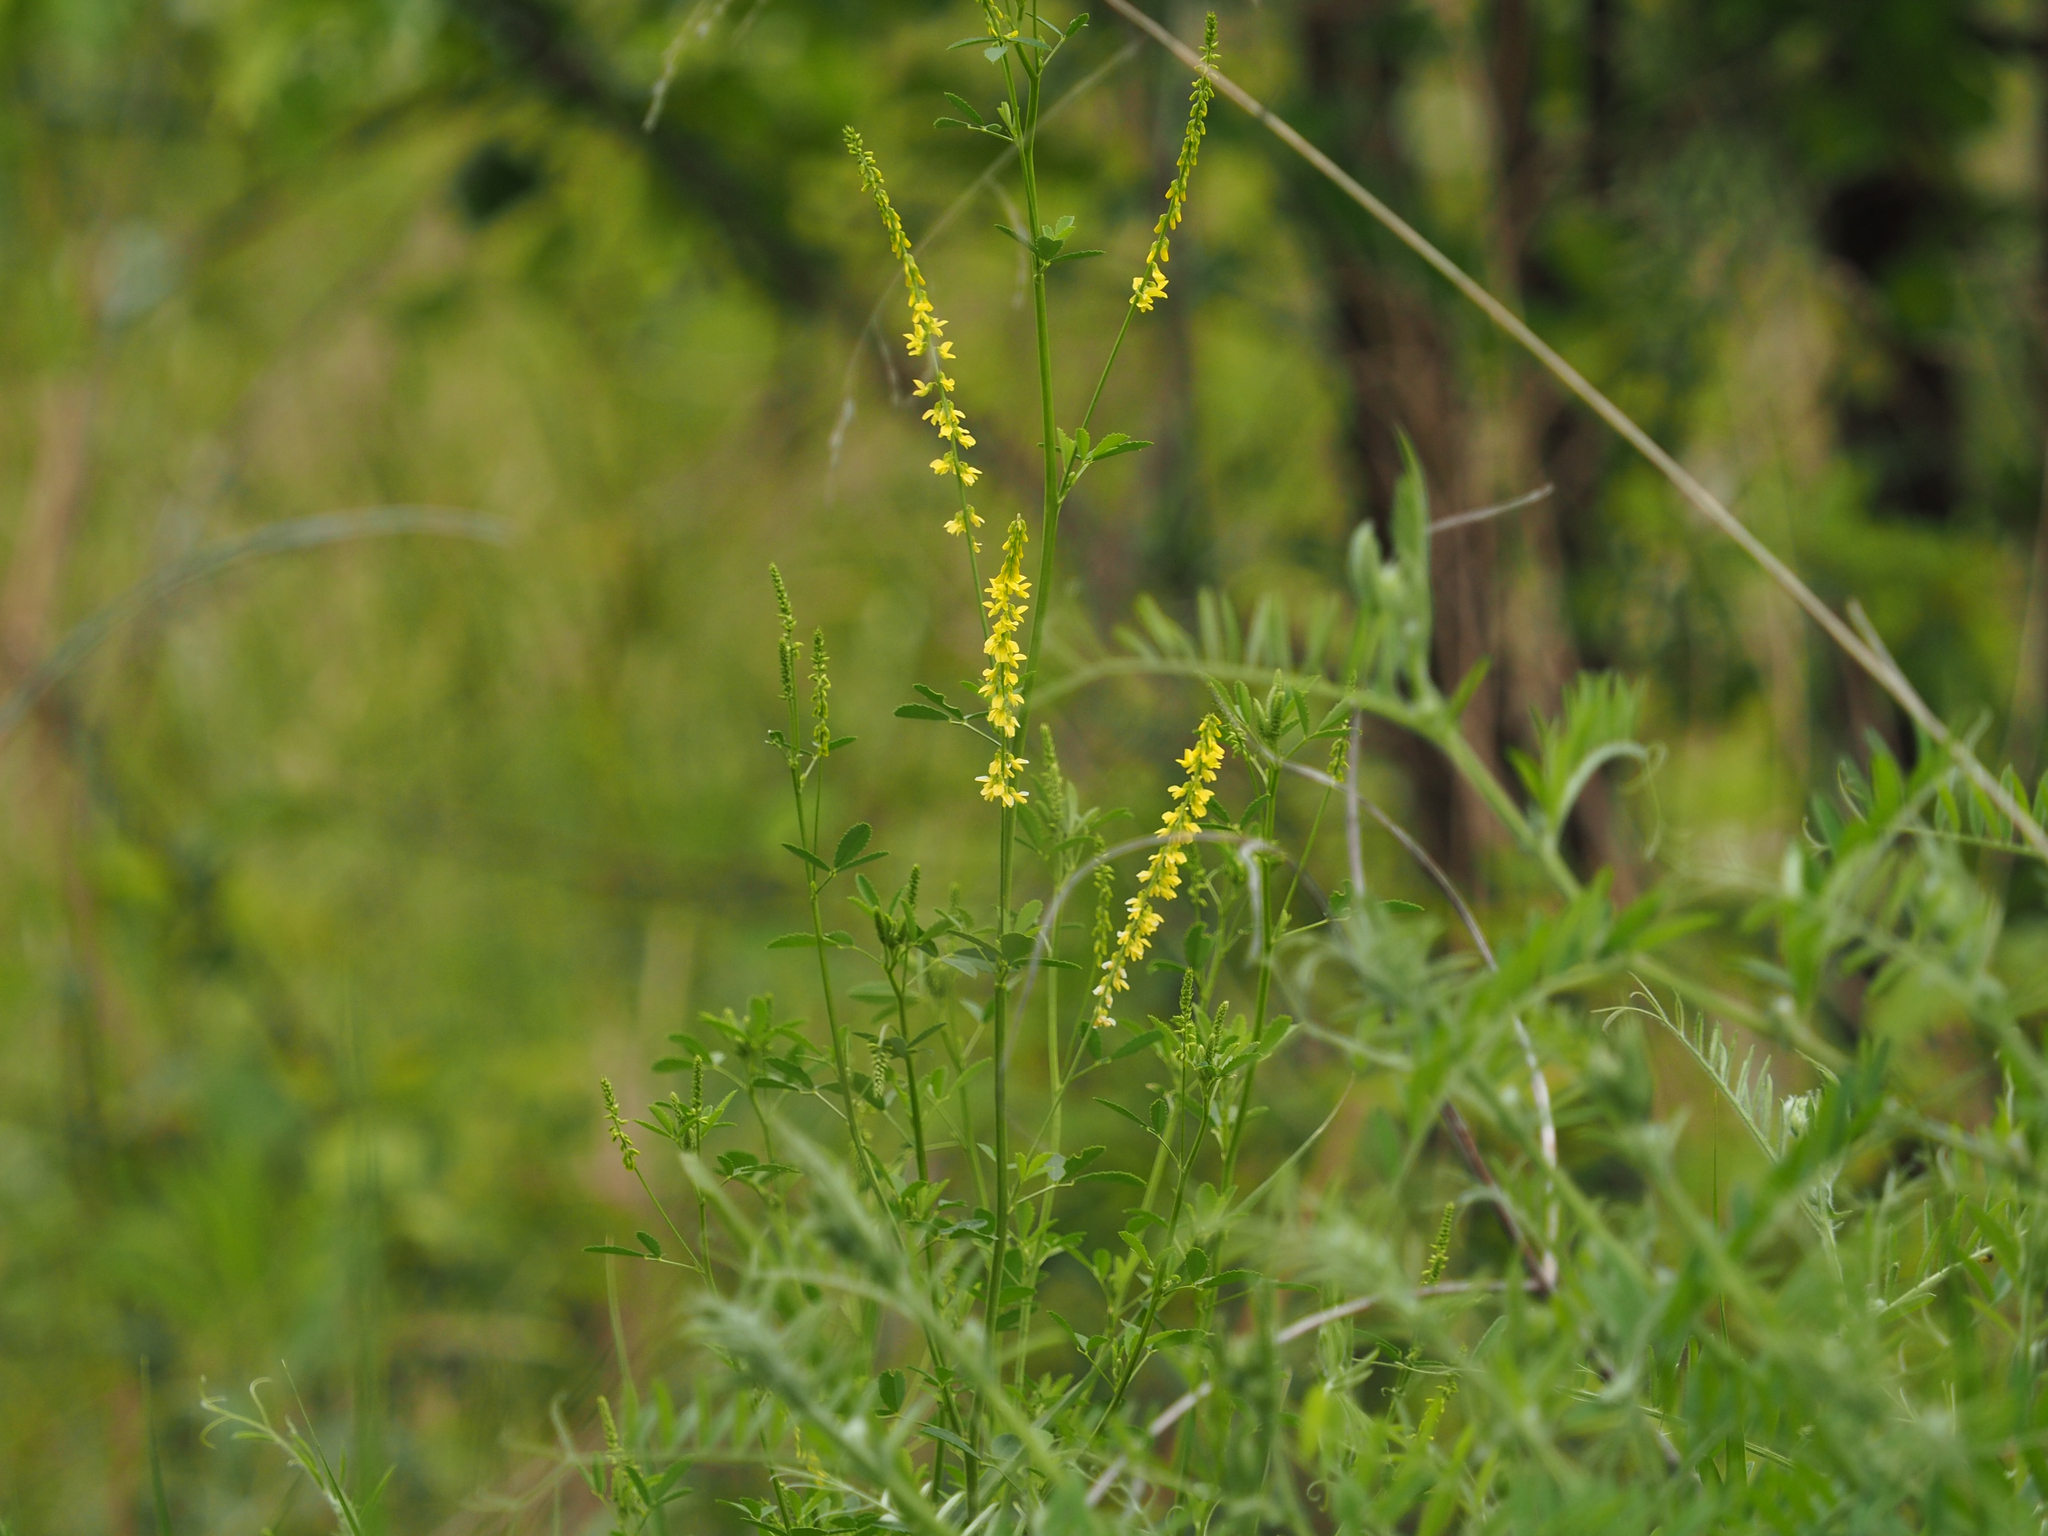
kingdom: Plantae
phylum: Tracheophyta
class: Magnoliopsida
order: Fabales
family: Fabaceae
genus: Melilotus
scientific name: Melilotus officinalis
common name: Sweetclover
